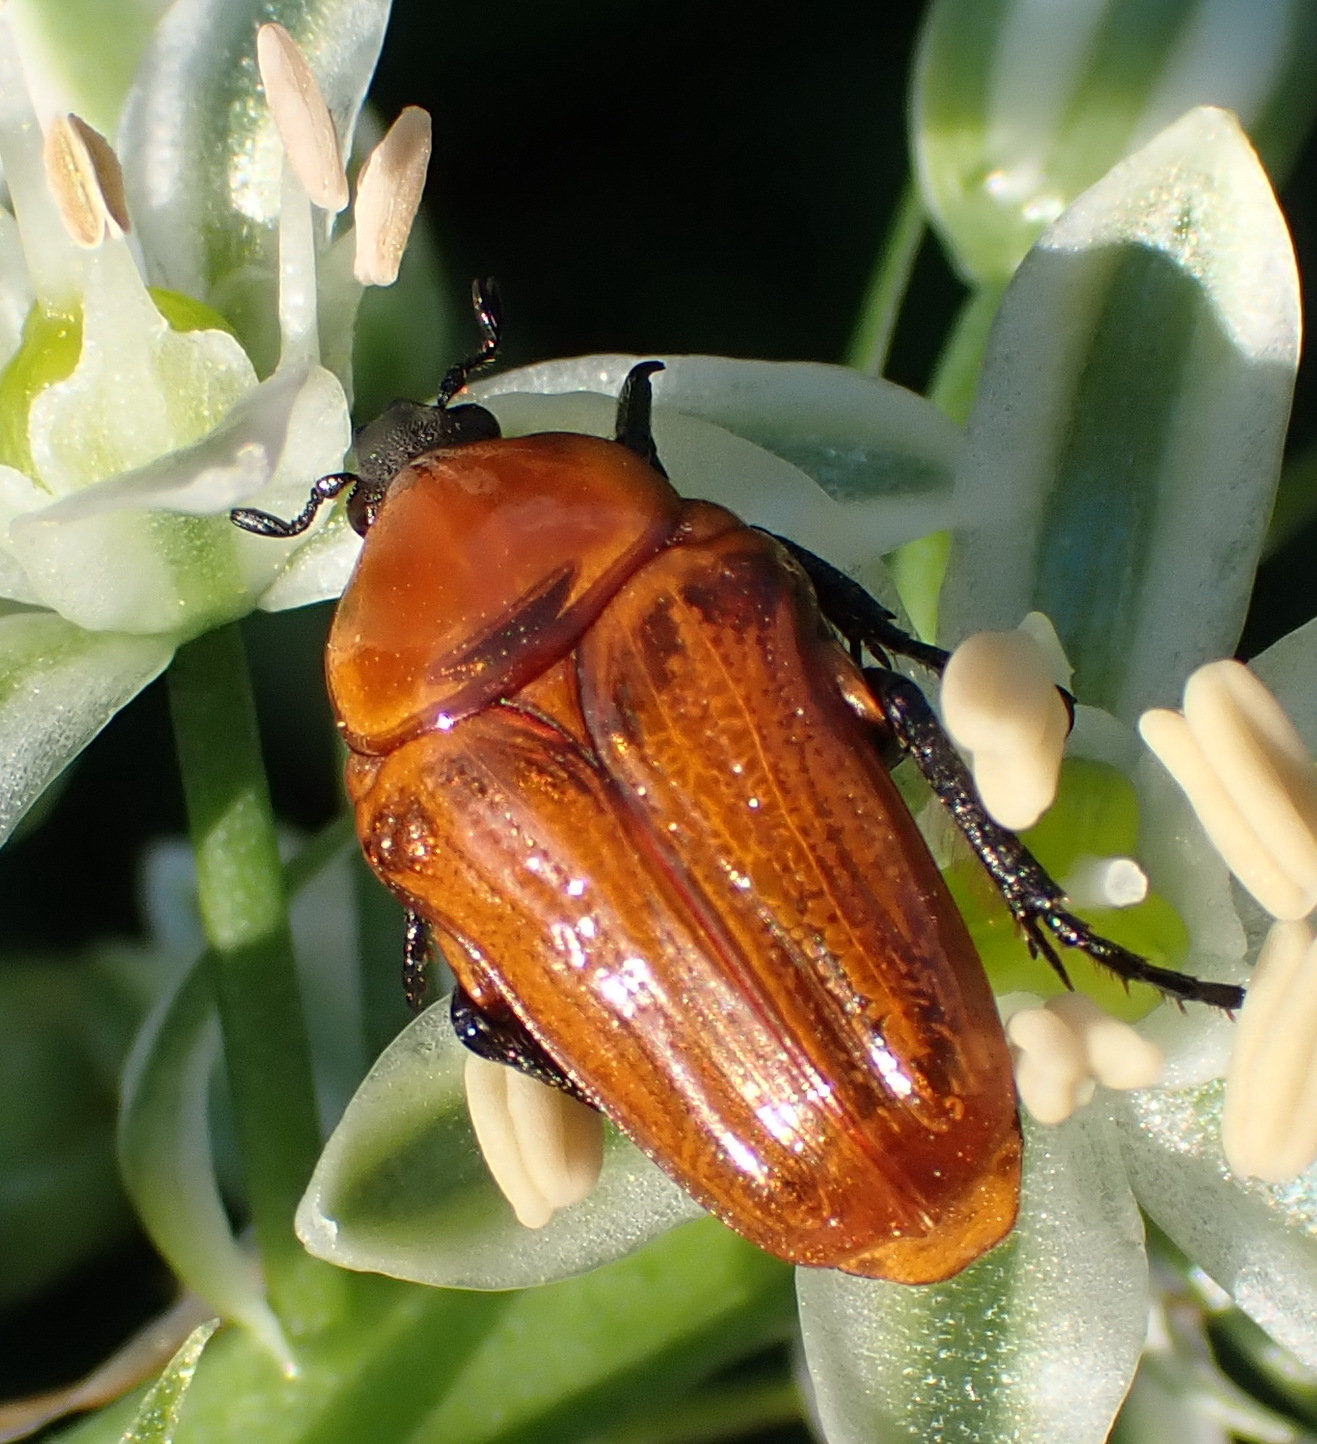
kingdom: Animalia
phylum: Arthropoda
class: Insecta
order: Coleoptera
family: Scarabaeidae
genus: Leucocelis
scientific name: Leucocelis rubra
